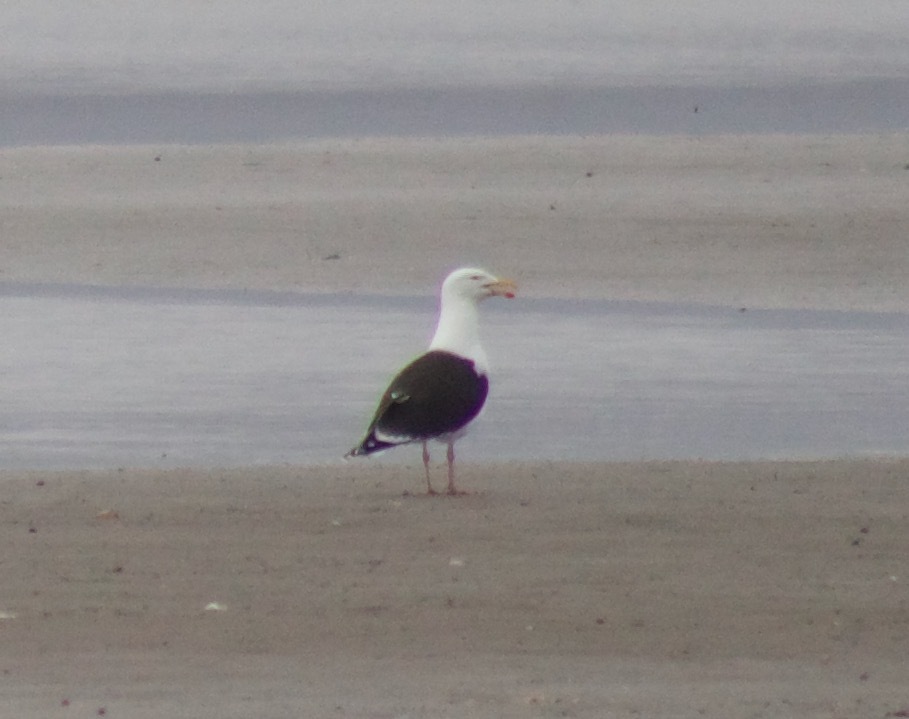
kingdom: Animalia
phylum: Chordata
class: Aves
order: Charadriiformes
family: Laridae
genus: Larus
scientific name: Larus marinus
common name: Great black-backed gull
